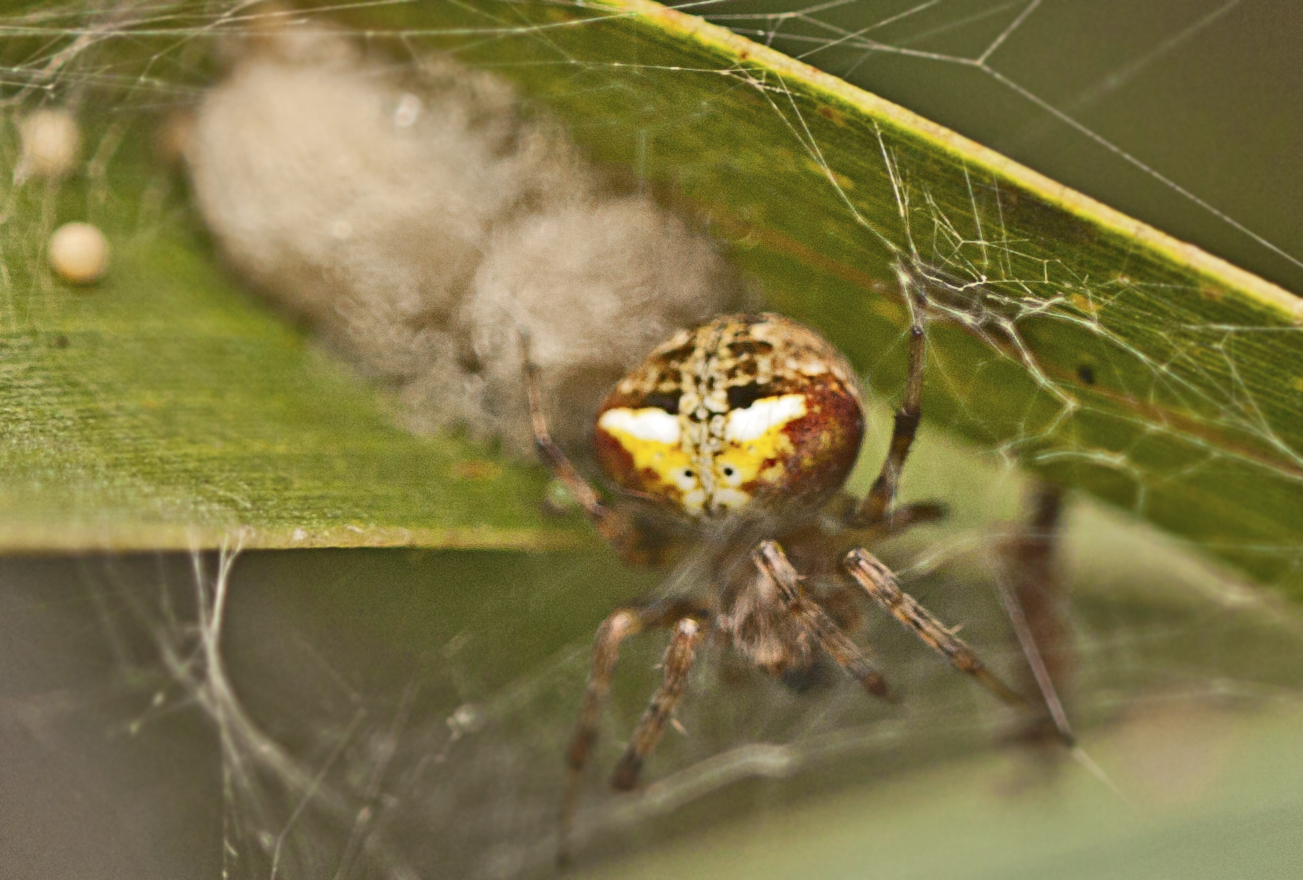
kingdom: Animalia
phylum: Arthropoda
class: Arachnida
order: Araneae
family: Araneidae
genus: Araneus
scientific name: Araneus albotriangulus
